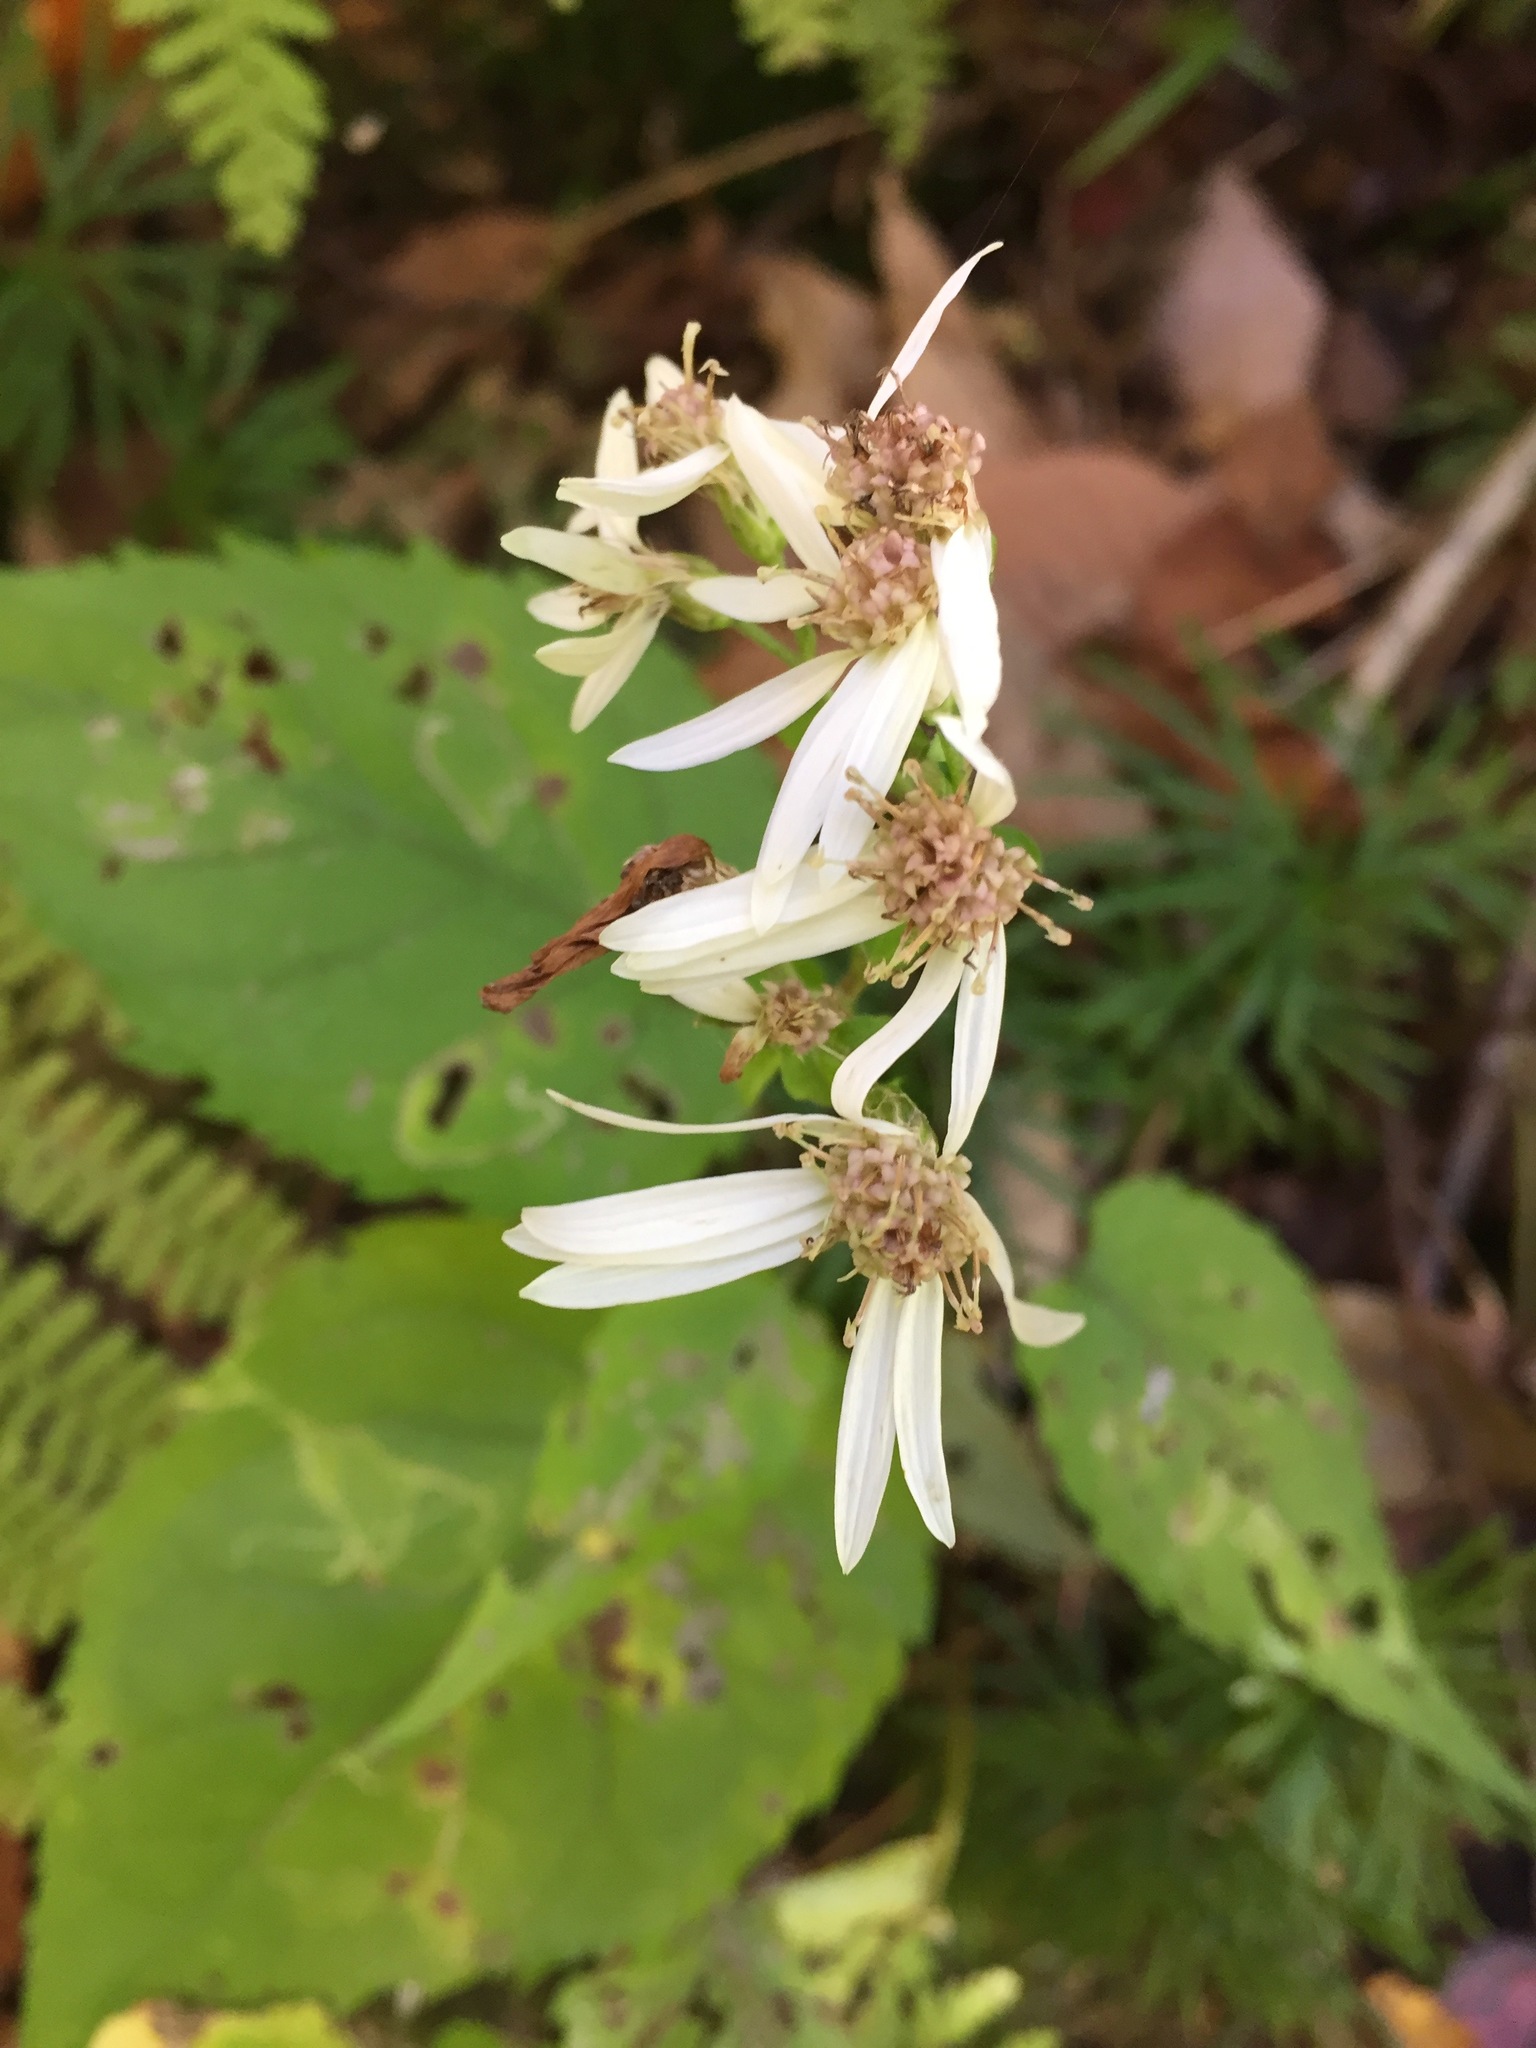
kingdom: Plantae
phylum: Tracheophyta
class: Magnoliopsida
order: Asterales
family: Asteraceae
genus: Eurybia
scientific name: Eurybia divaricata
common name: White wood aster
